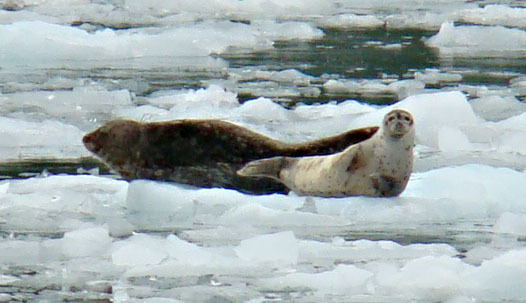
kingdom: Animalia
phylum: Chordata
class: Mammalia
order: Carnivora
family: Phocidae
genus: Phoca
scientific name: Phoca vitulina
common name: Harbor seal
